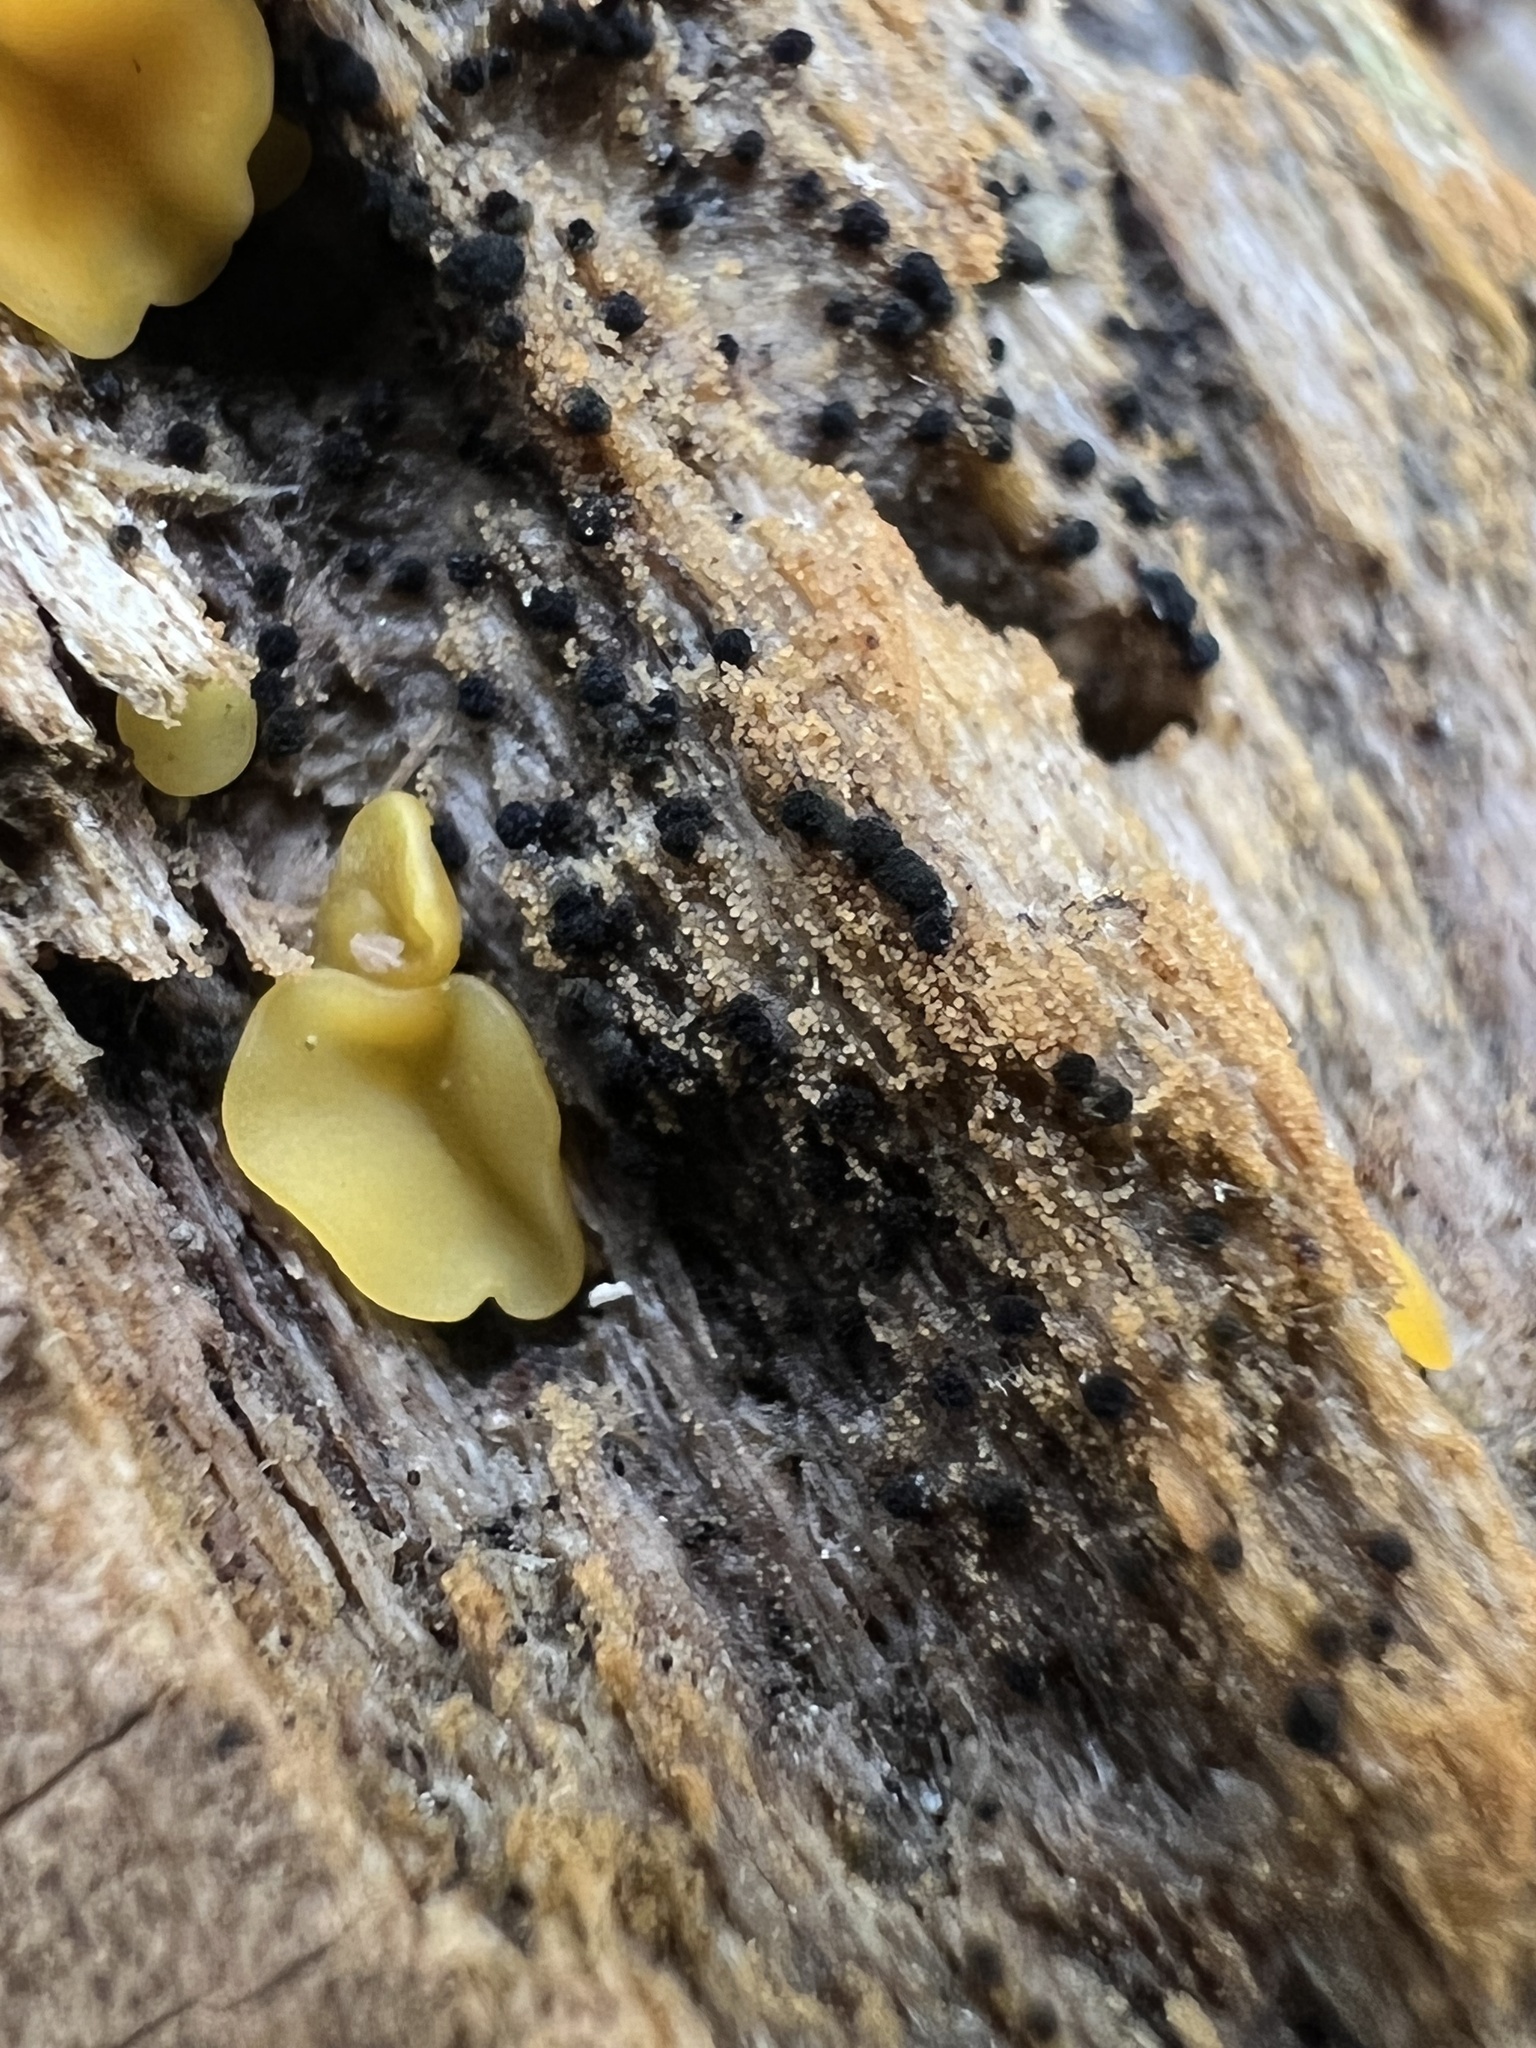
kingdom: Fungi
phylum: Ascomycota
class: Dothideomycetes
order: Pleosporales
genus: Berkleasmium
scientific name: Berkleasmium concinnum
